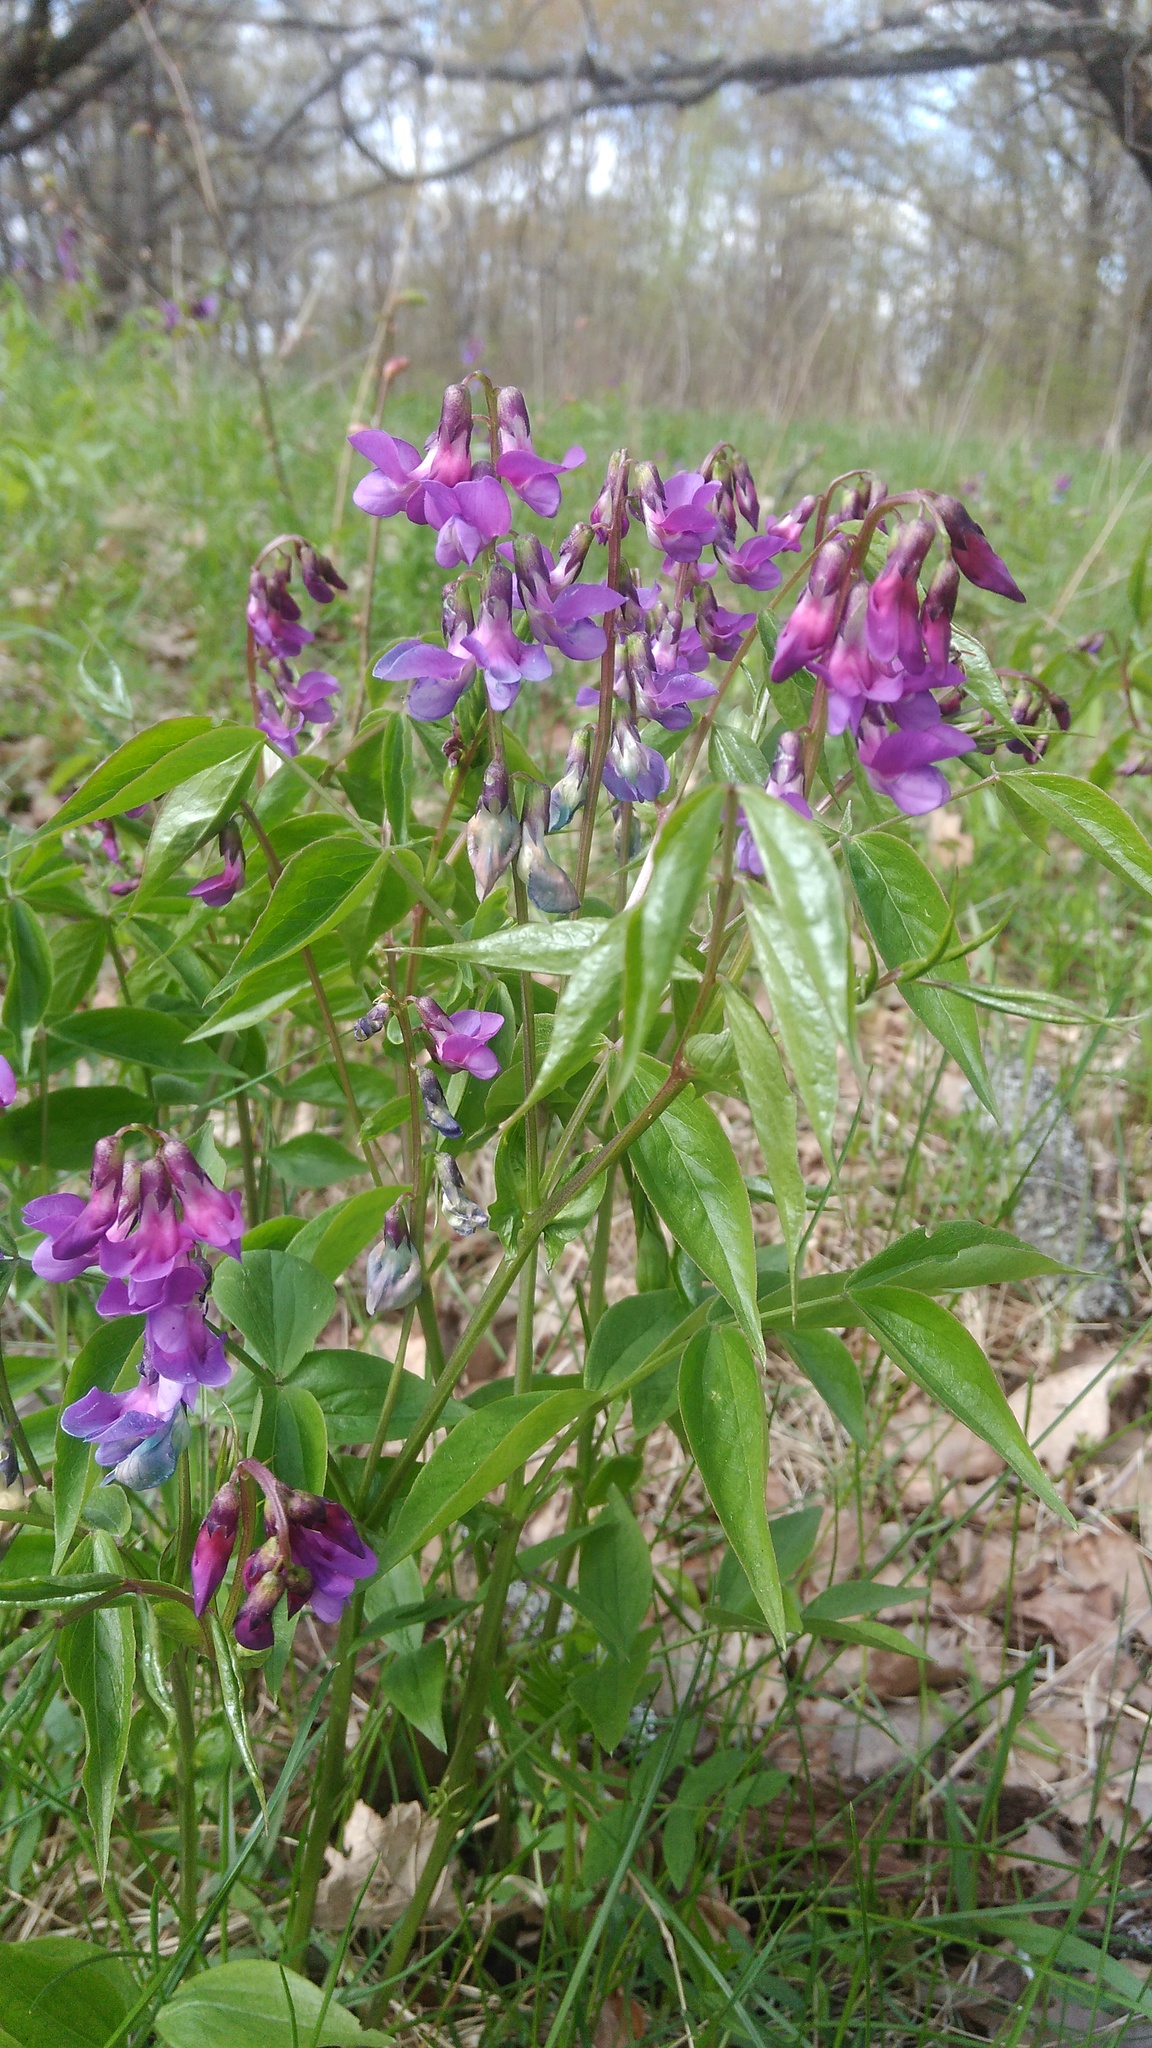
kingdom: Plantae
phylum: Tracheophyta
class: Magnoliopsida
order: Fabales
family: Fabaceae
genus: Lathyrus
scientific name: Lathyrus vernus
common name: Spring pea
